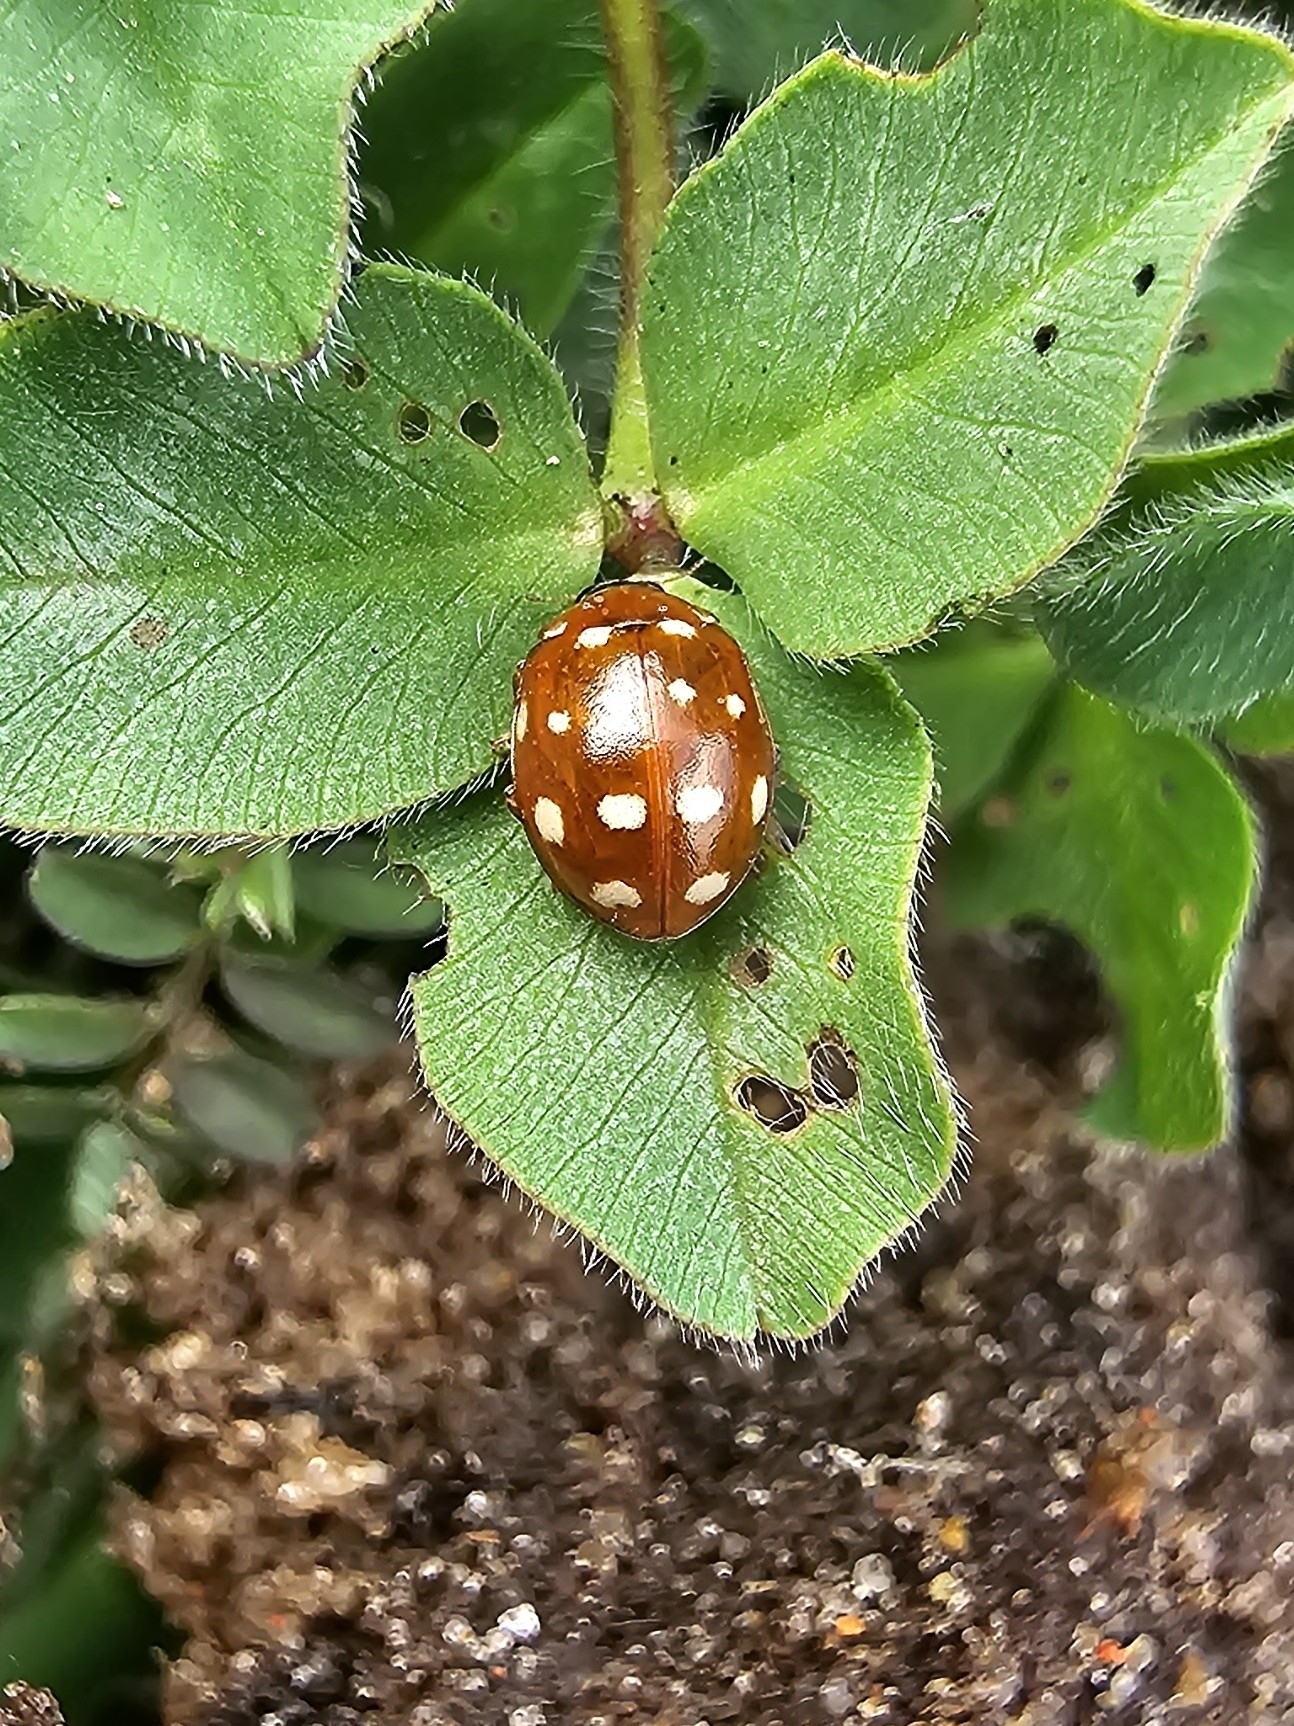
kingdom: Animalia
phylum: Arthropoda
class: Insecta
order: Coleoptera
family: Coccinellidae
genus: Calvia
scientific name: Calvia quatuordecimguttata
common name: Cream-spot ladybird
